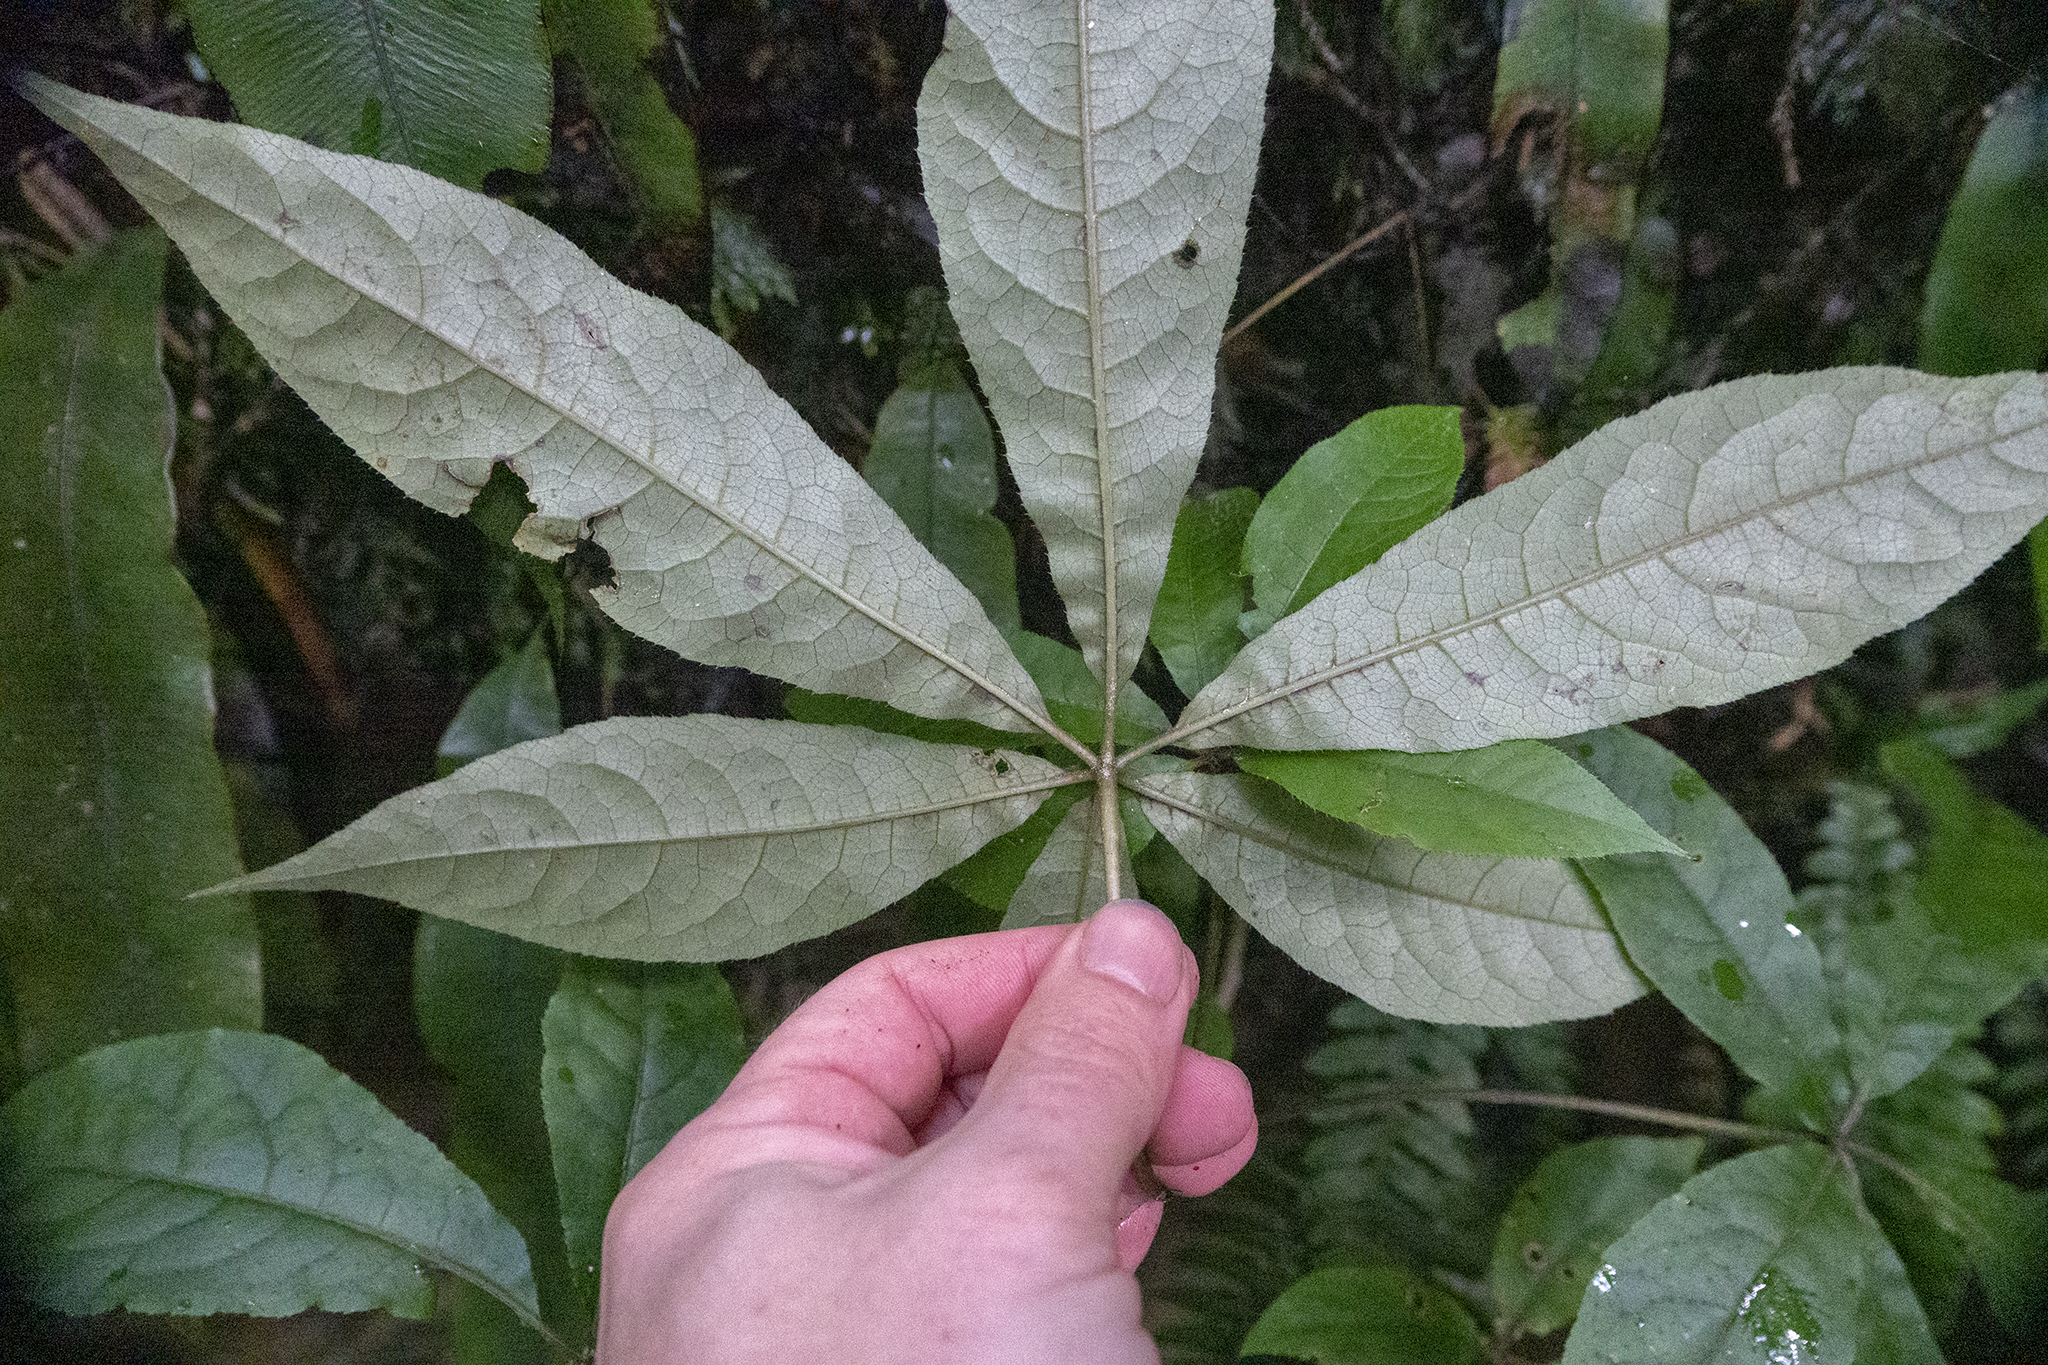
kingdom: Plantae
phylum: Tracheophyta
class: Magnoliopsida
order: Apiales
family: Araliaceae
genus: Schefflera
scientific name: Schefflera digitata
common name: Pate
